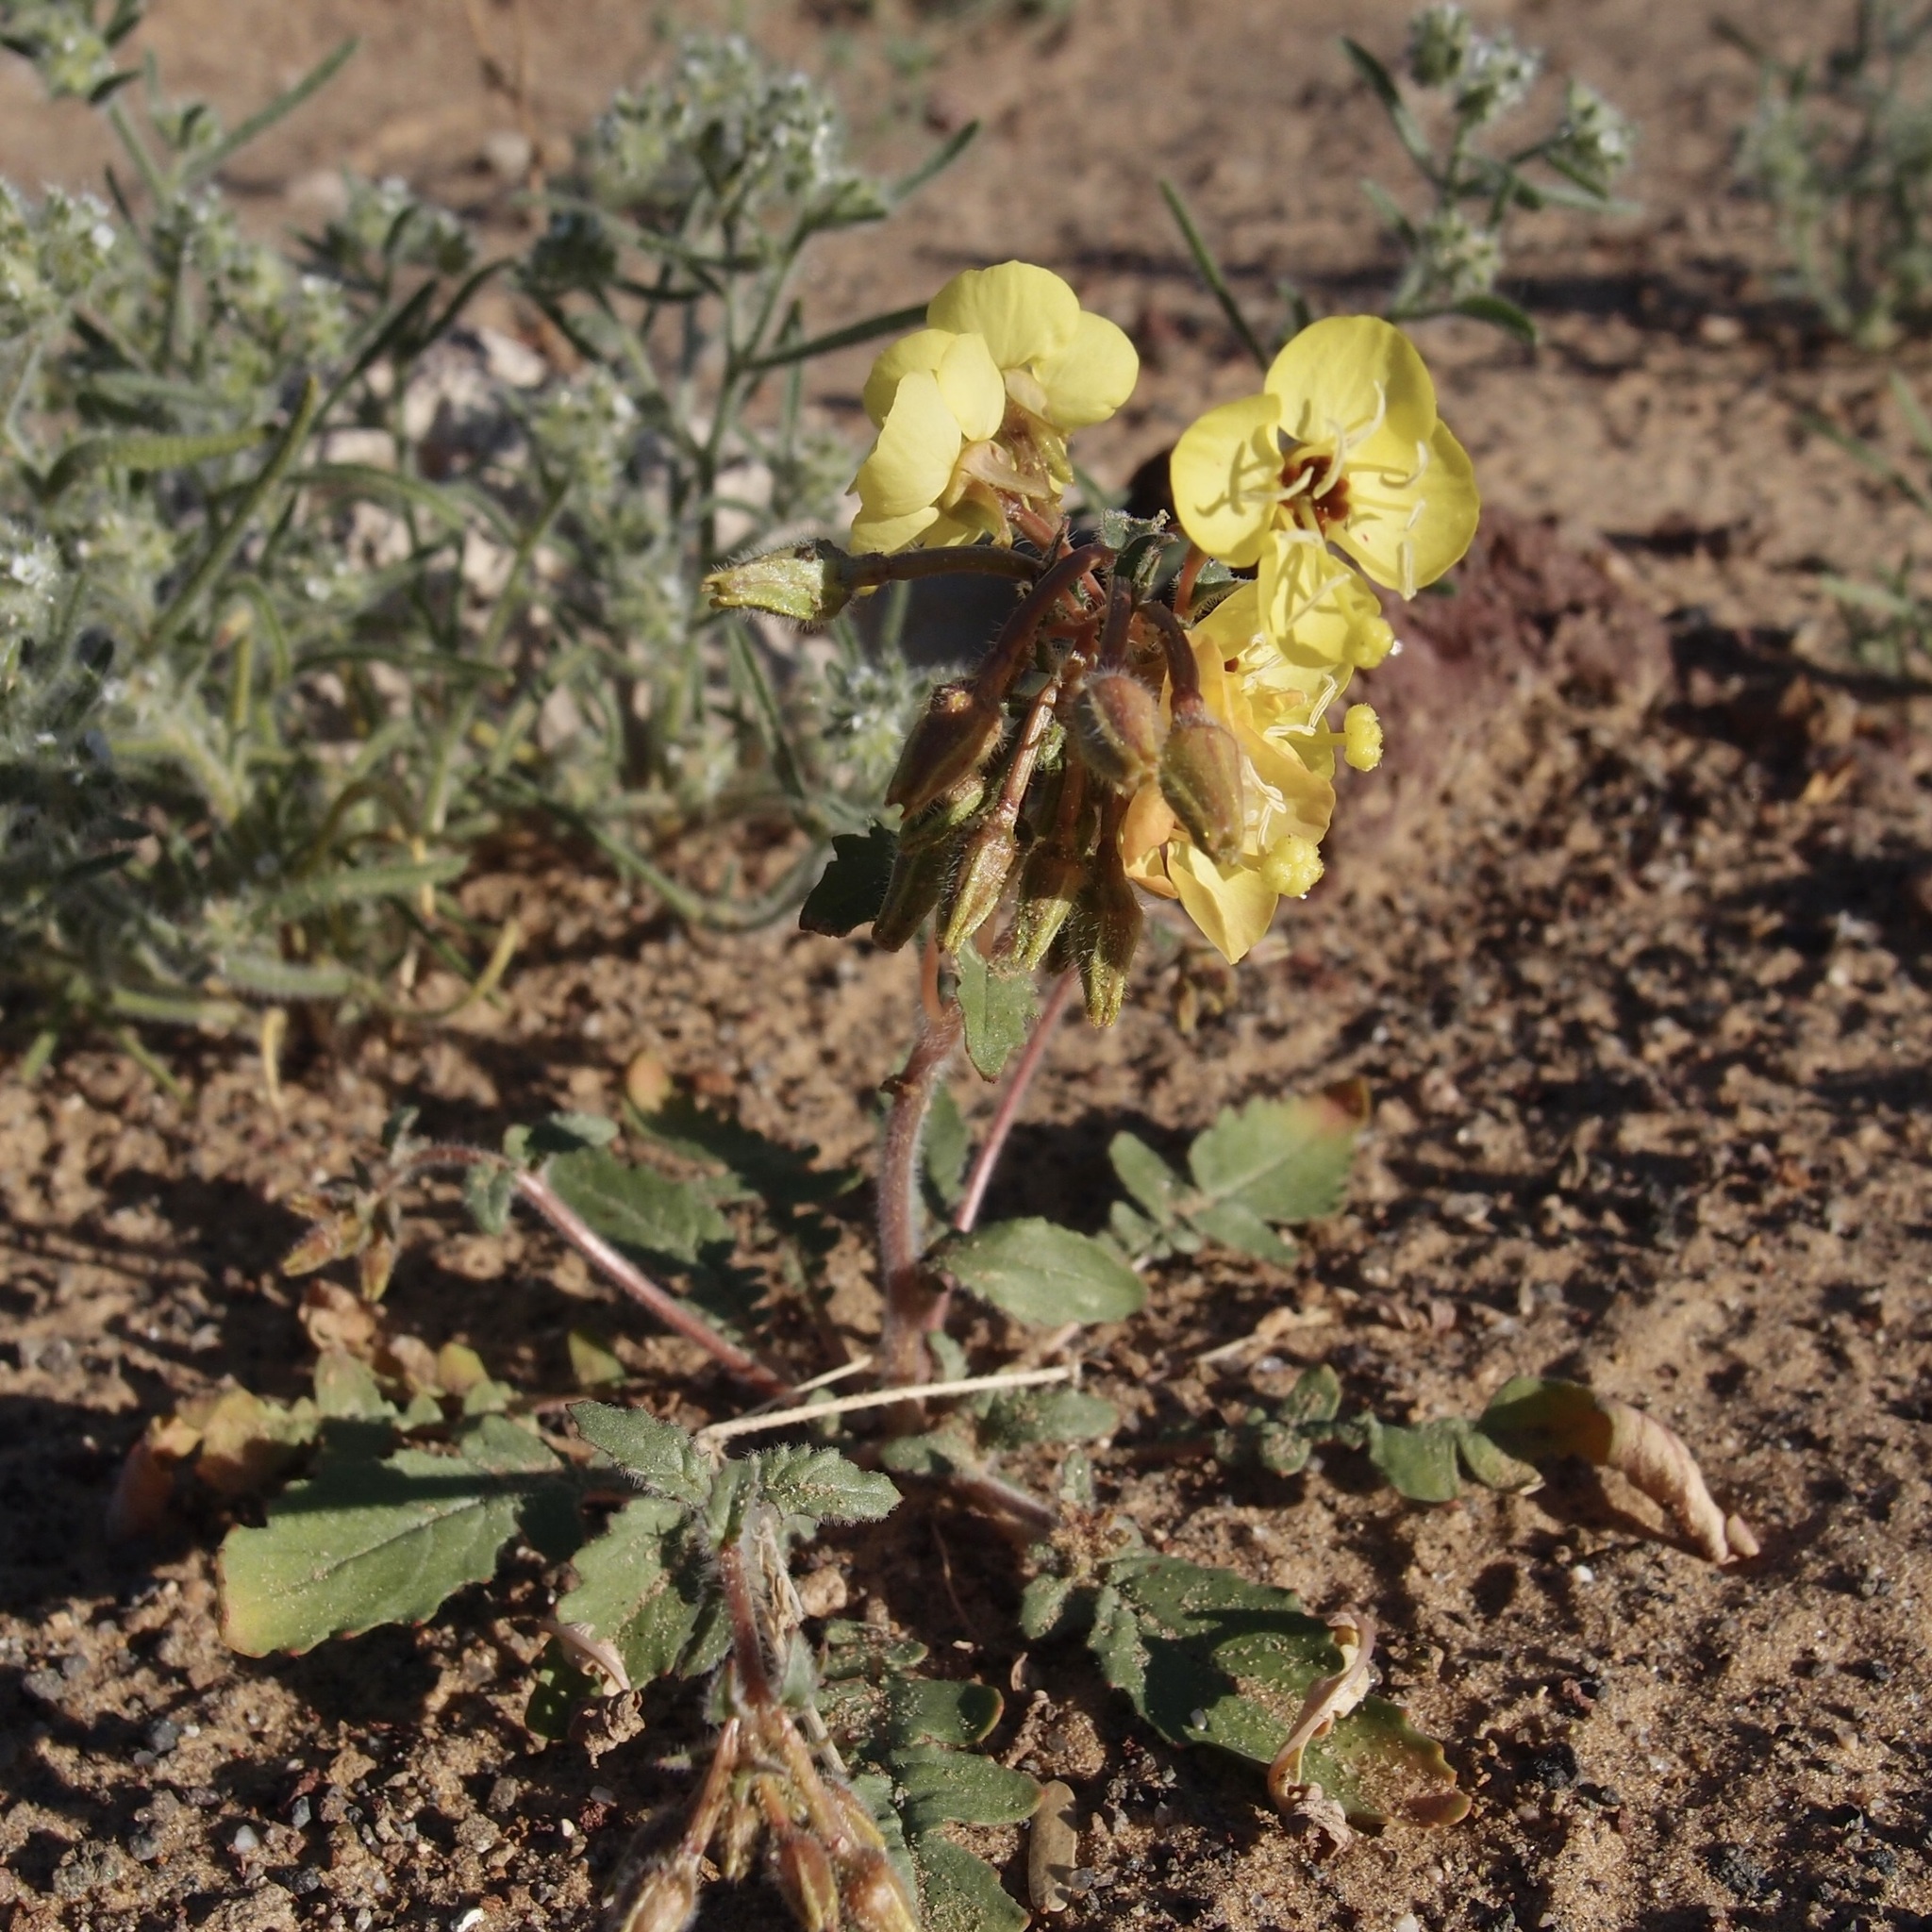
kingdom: Plantae
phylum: Tracheophyta
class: Magnoliopsida
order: Myrtales
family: Onagraceae
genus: Chylismia
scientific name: Chylismia claviformis
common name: Browneyes
